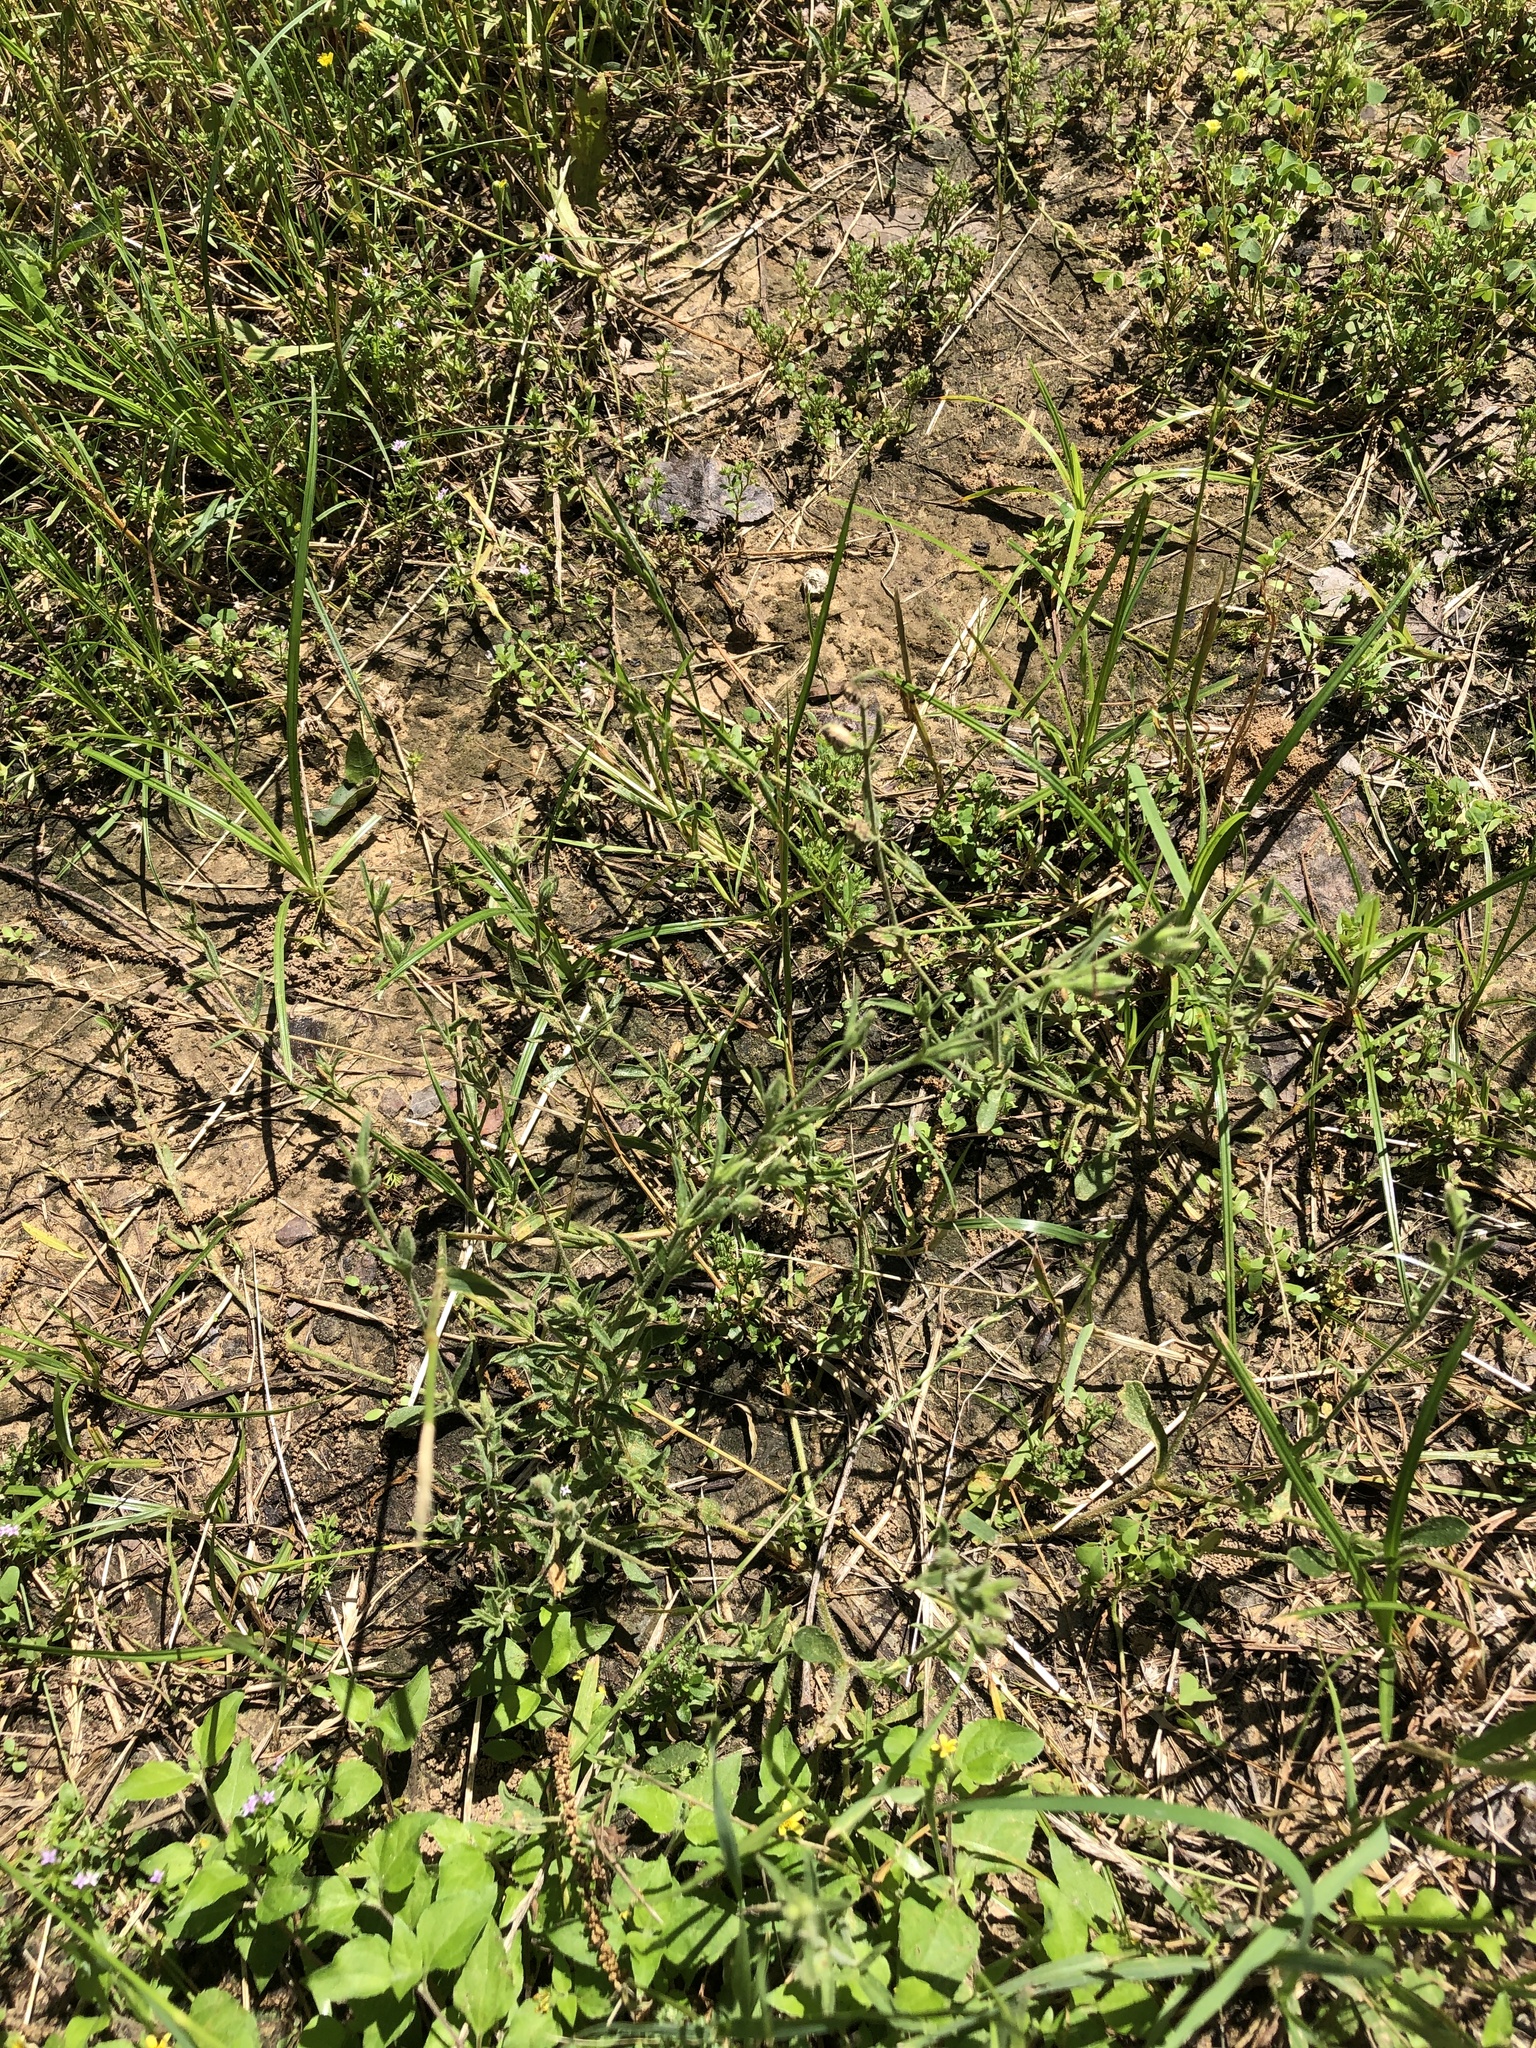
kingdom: Plantae
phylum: Tracheophyta
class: Magnoliopsida
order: Caryophyllales
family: Caryophyllaceae
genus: Silene
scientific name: Silene gallica
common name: Small-flowered catchfly
